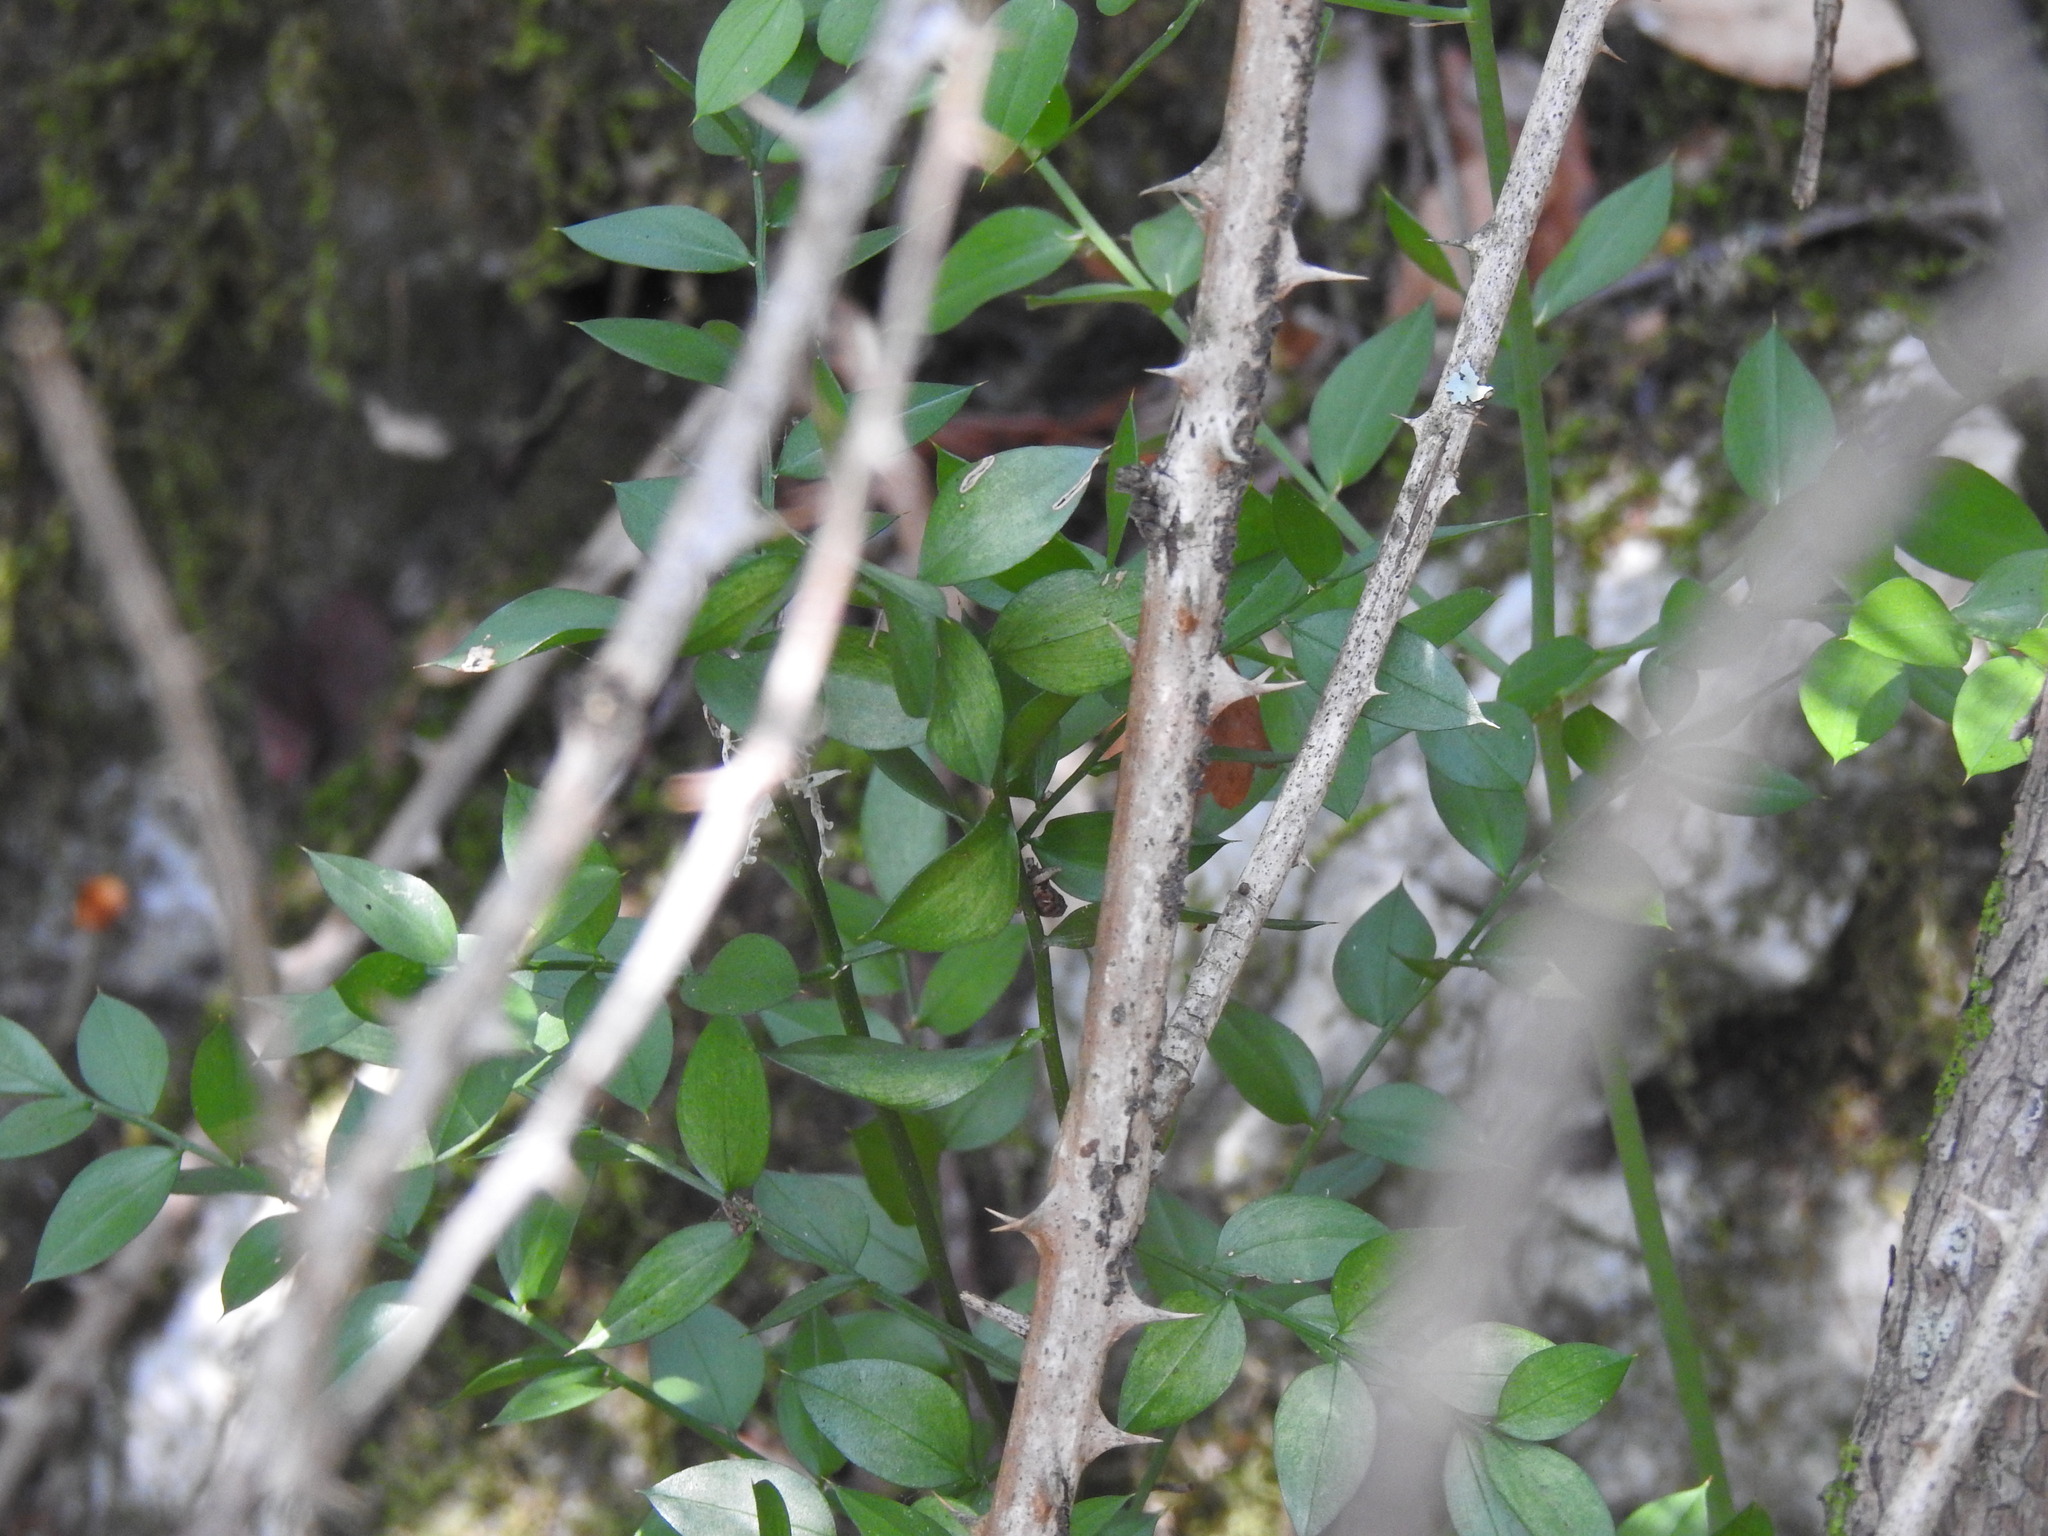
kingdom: Plantae
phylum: Tracheophyta
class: Liliopsida
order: Asparagales
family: Asparagaceae
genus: Ruscus
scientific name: Ruscus aculeatus
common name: Butcher's-broom
